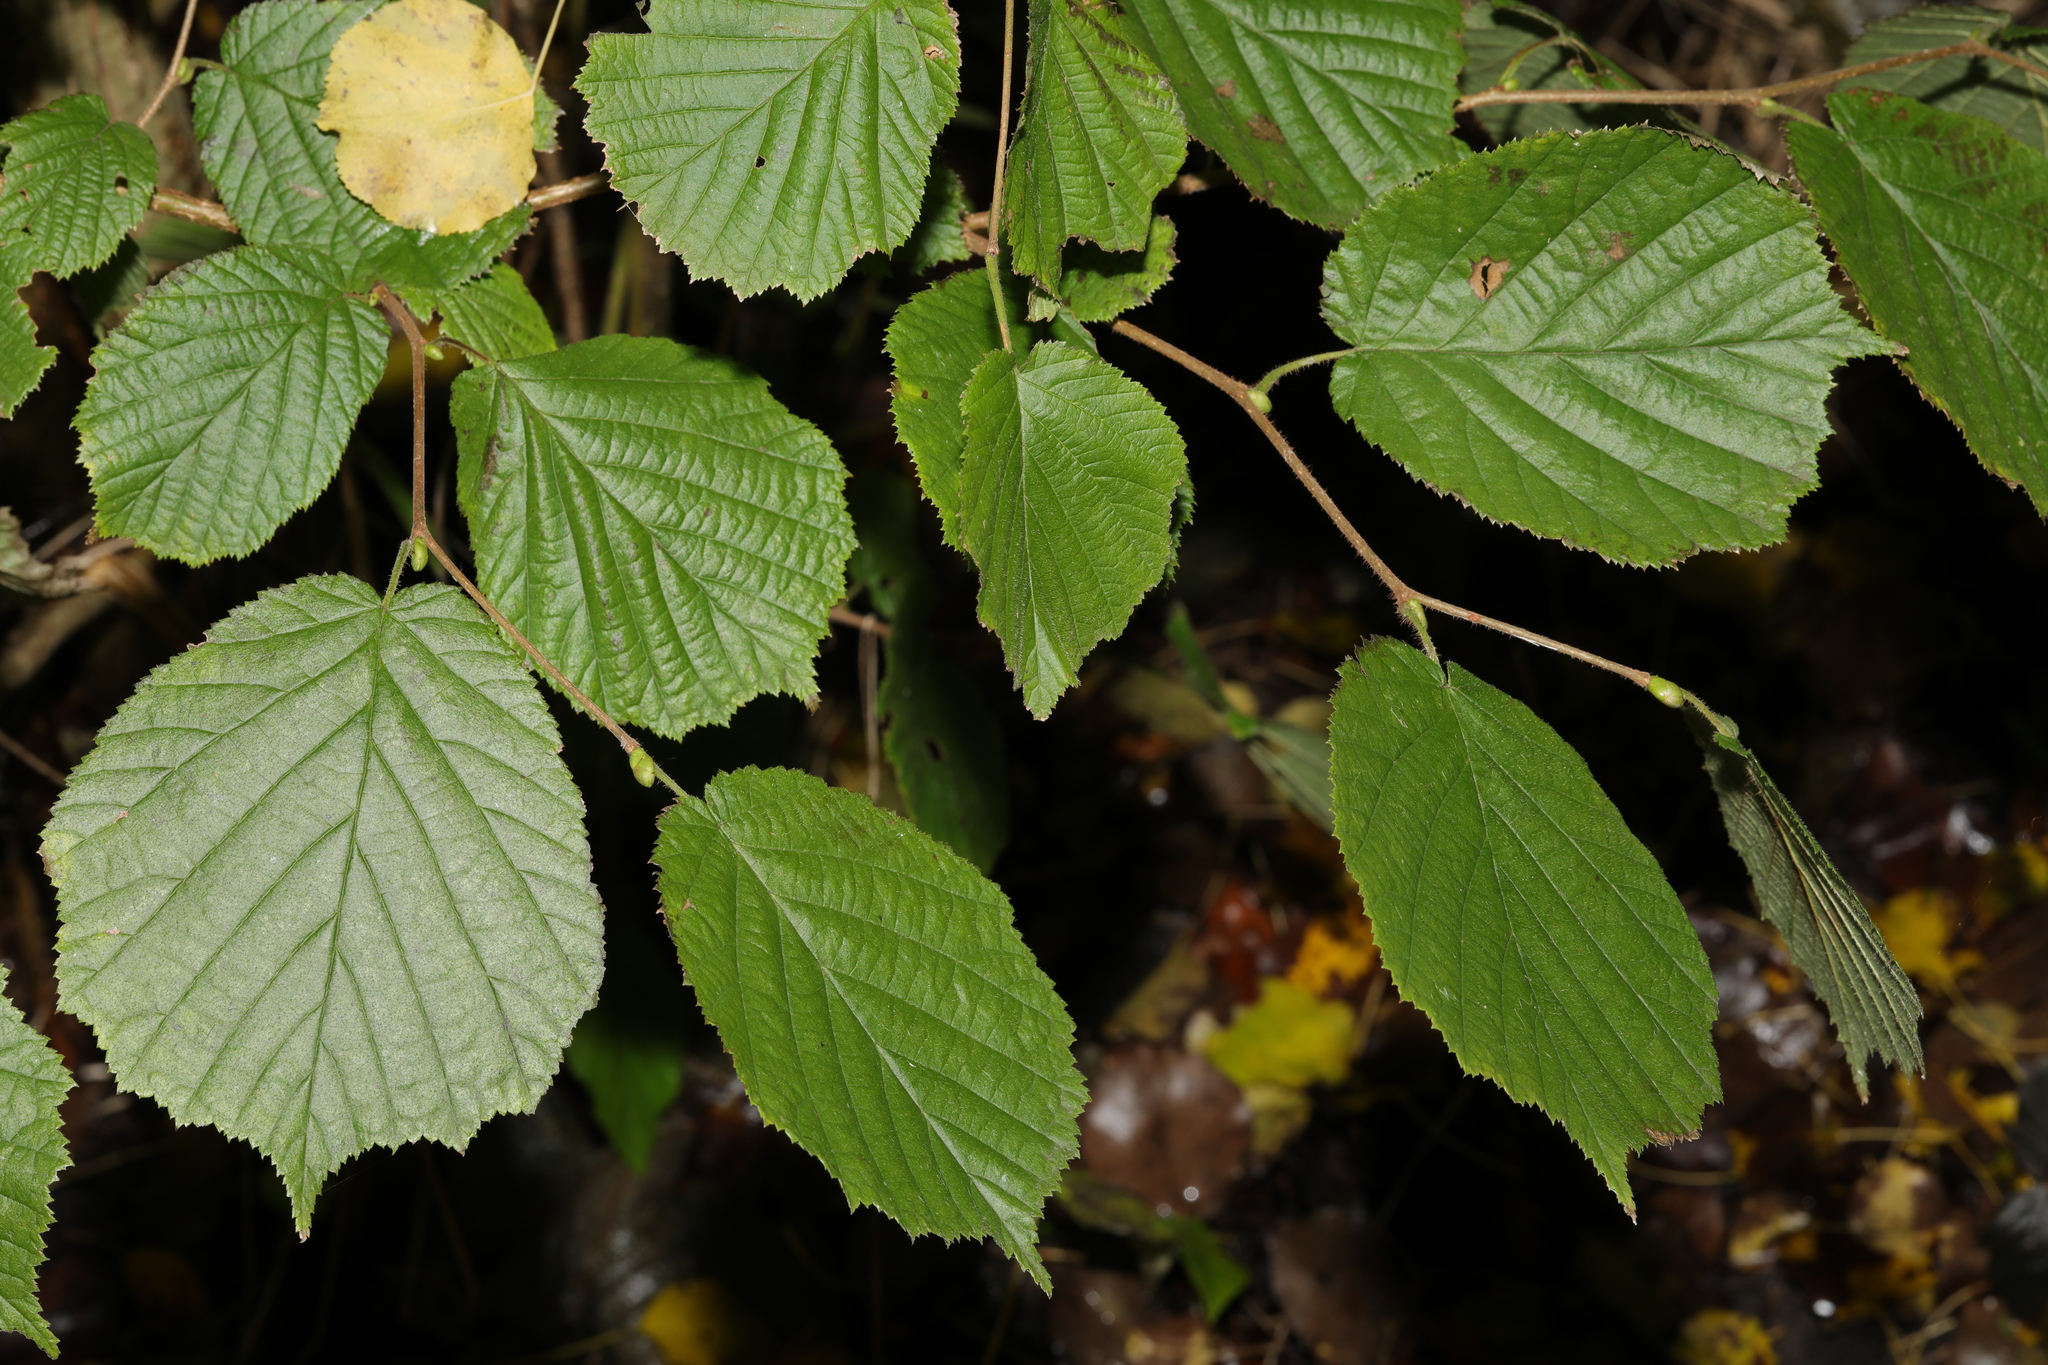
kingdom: Plantae
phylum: Tracheophyta
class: Magnoliopsida
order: Fagales
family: Betulaceae
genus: Corylus
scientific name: Corylus avellana
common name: European hazel
